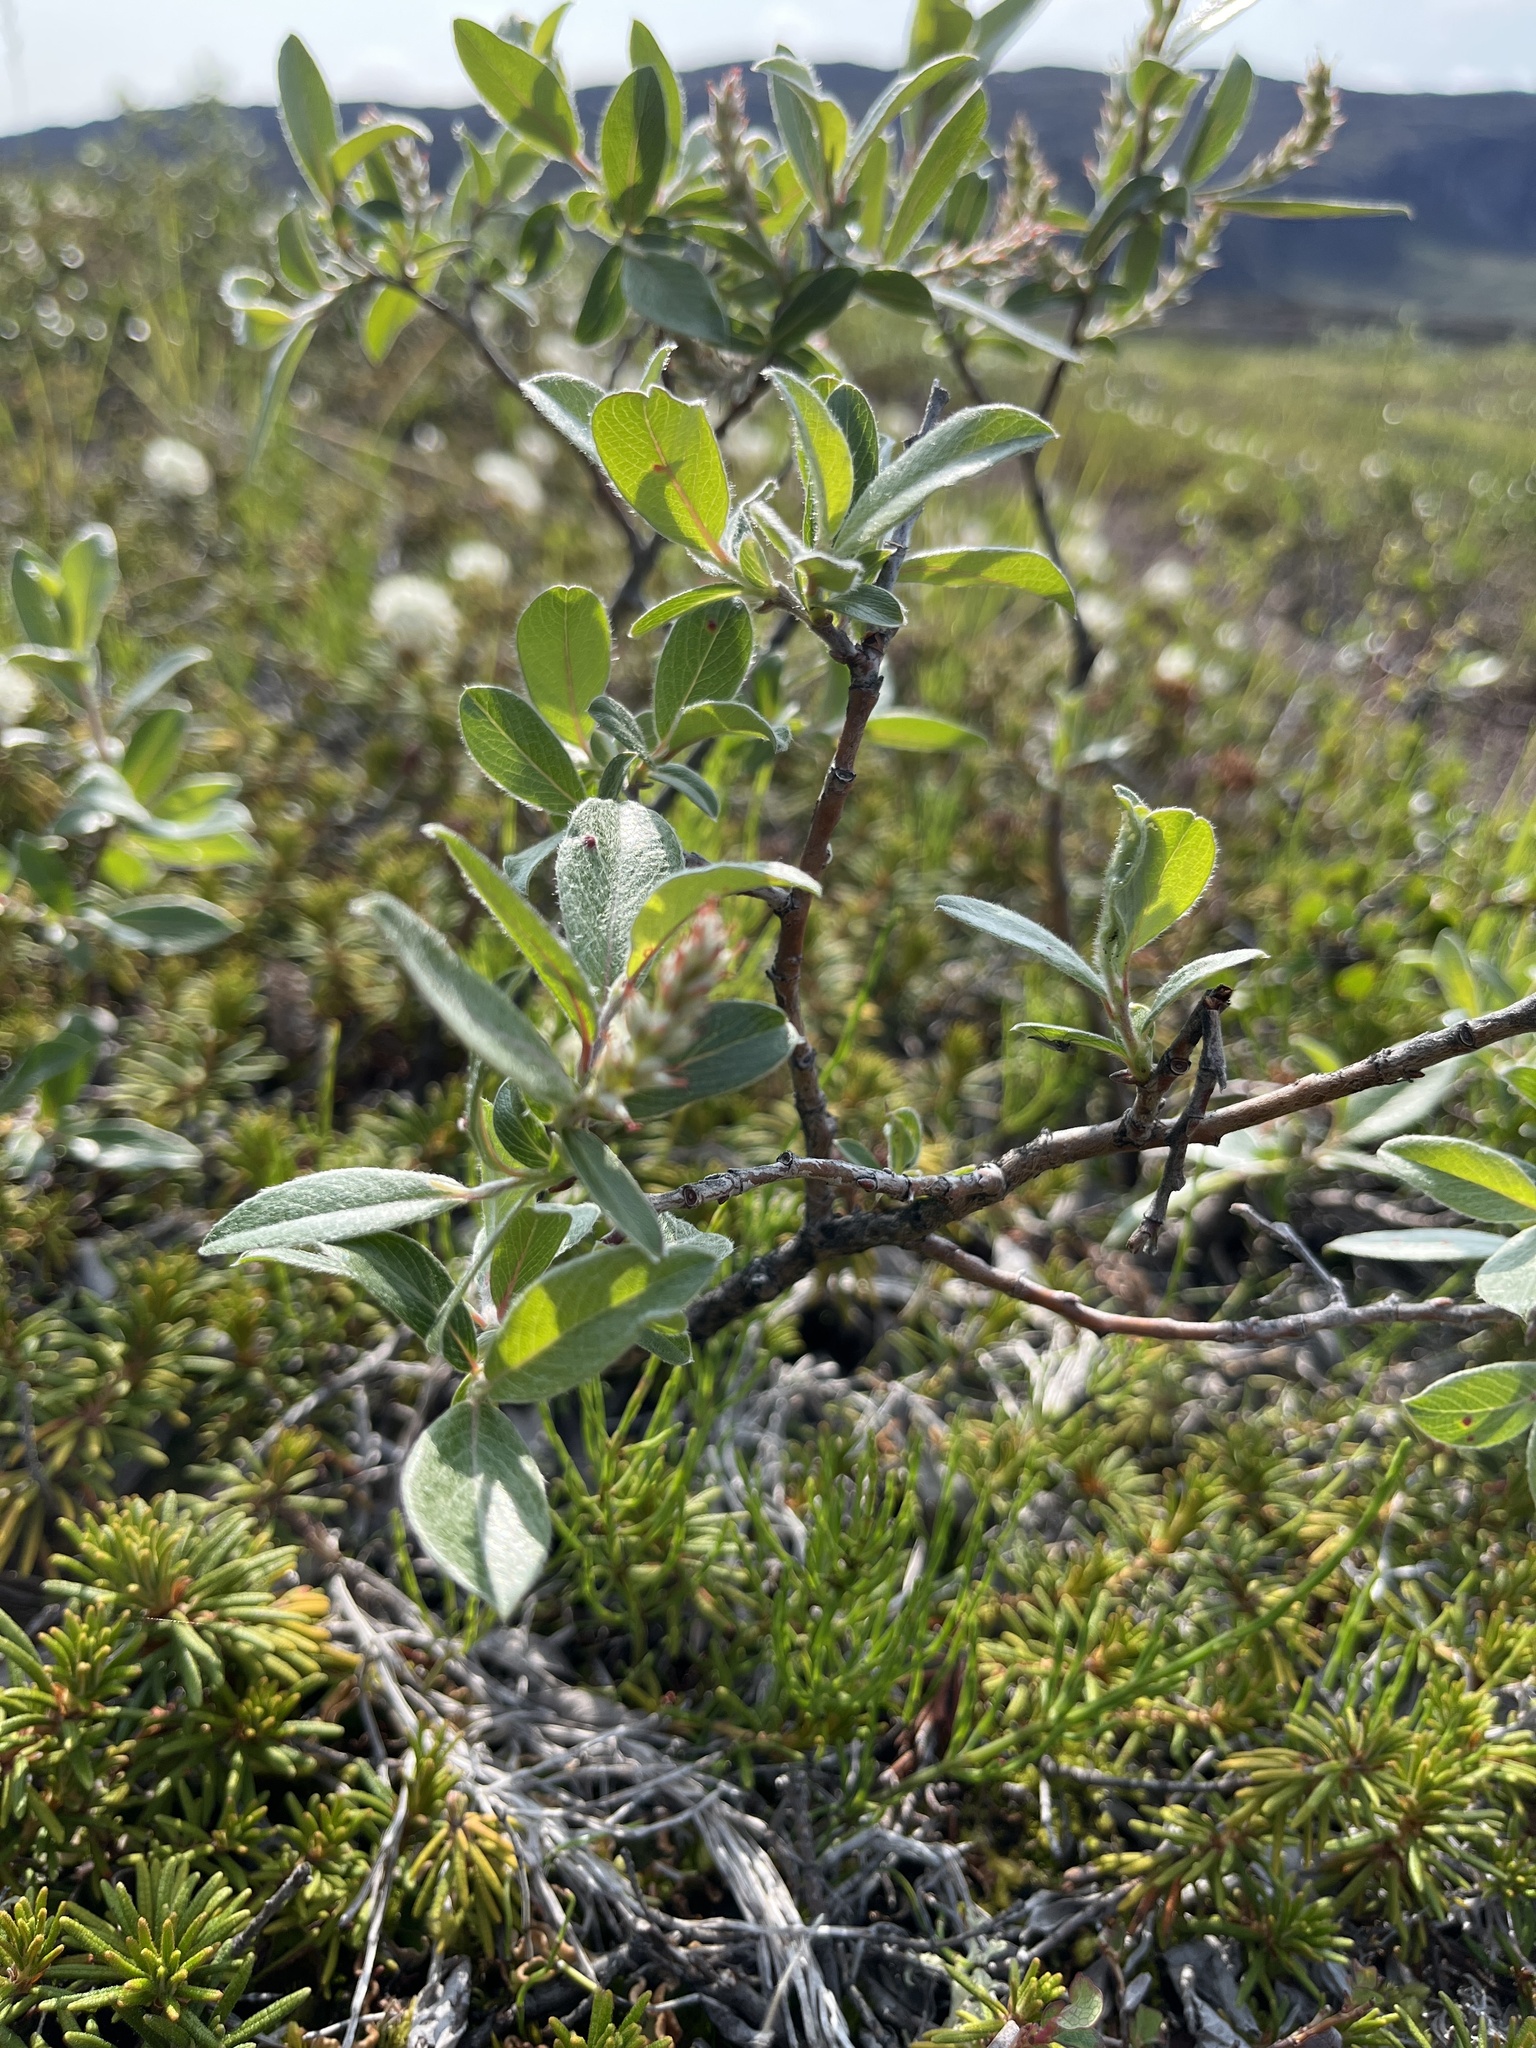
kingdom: Plantae
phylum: Tracheophyta
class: Magnoliopsida
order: Malpighiales
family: Salicaceae
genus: Salix
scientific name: Salix glauca
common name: Glaucous willow
